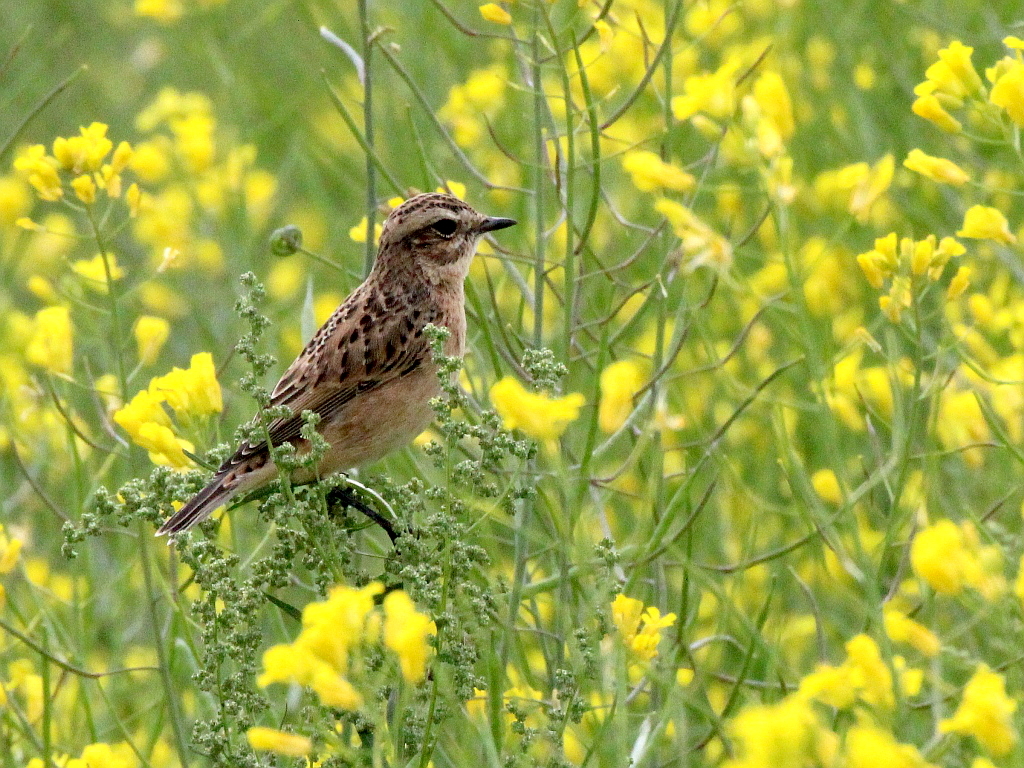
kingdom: Animalia
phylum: Chordata
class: Aves
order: Passeriformes
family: Muscicapidae
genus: Saxicola
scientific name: Saxicola rubetra
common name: Whinchat
